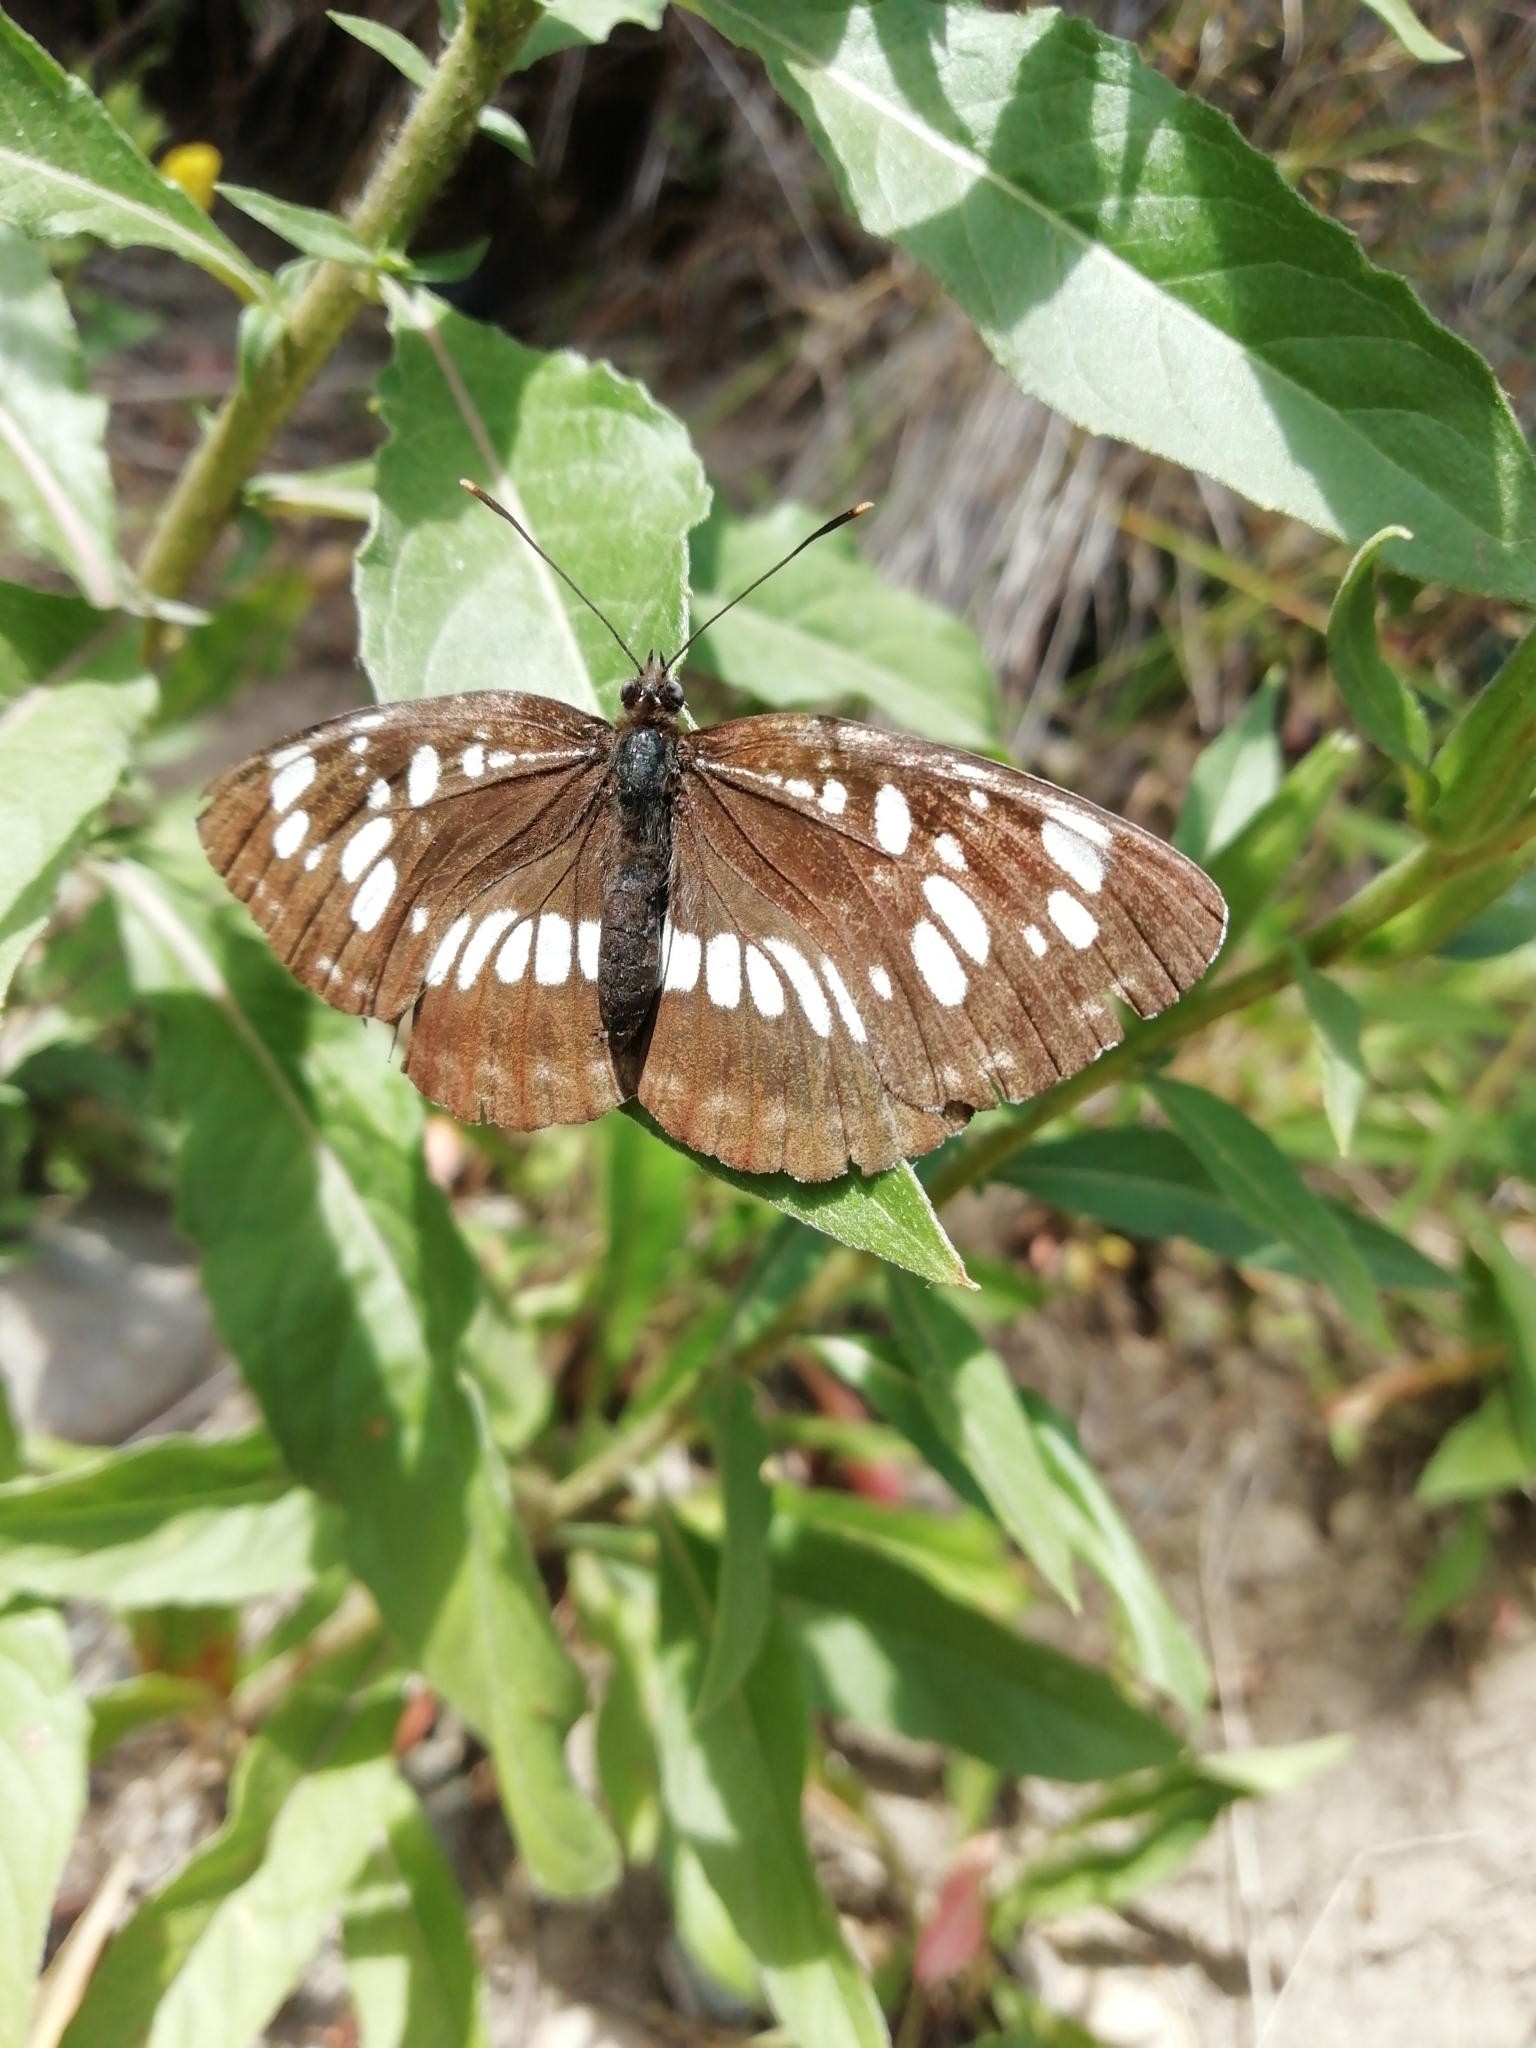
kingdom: Animalia
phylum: Arthropoda
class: Insecta
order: Lepidoptera
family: Nymphalidae
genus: Neptis
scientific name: Neptis rivularis
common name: Hungarian glider
